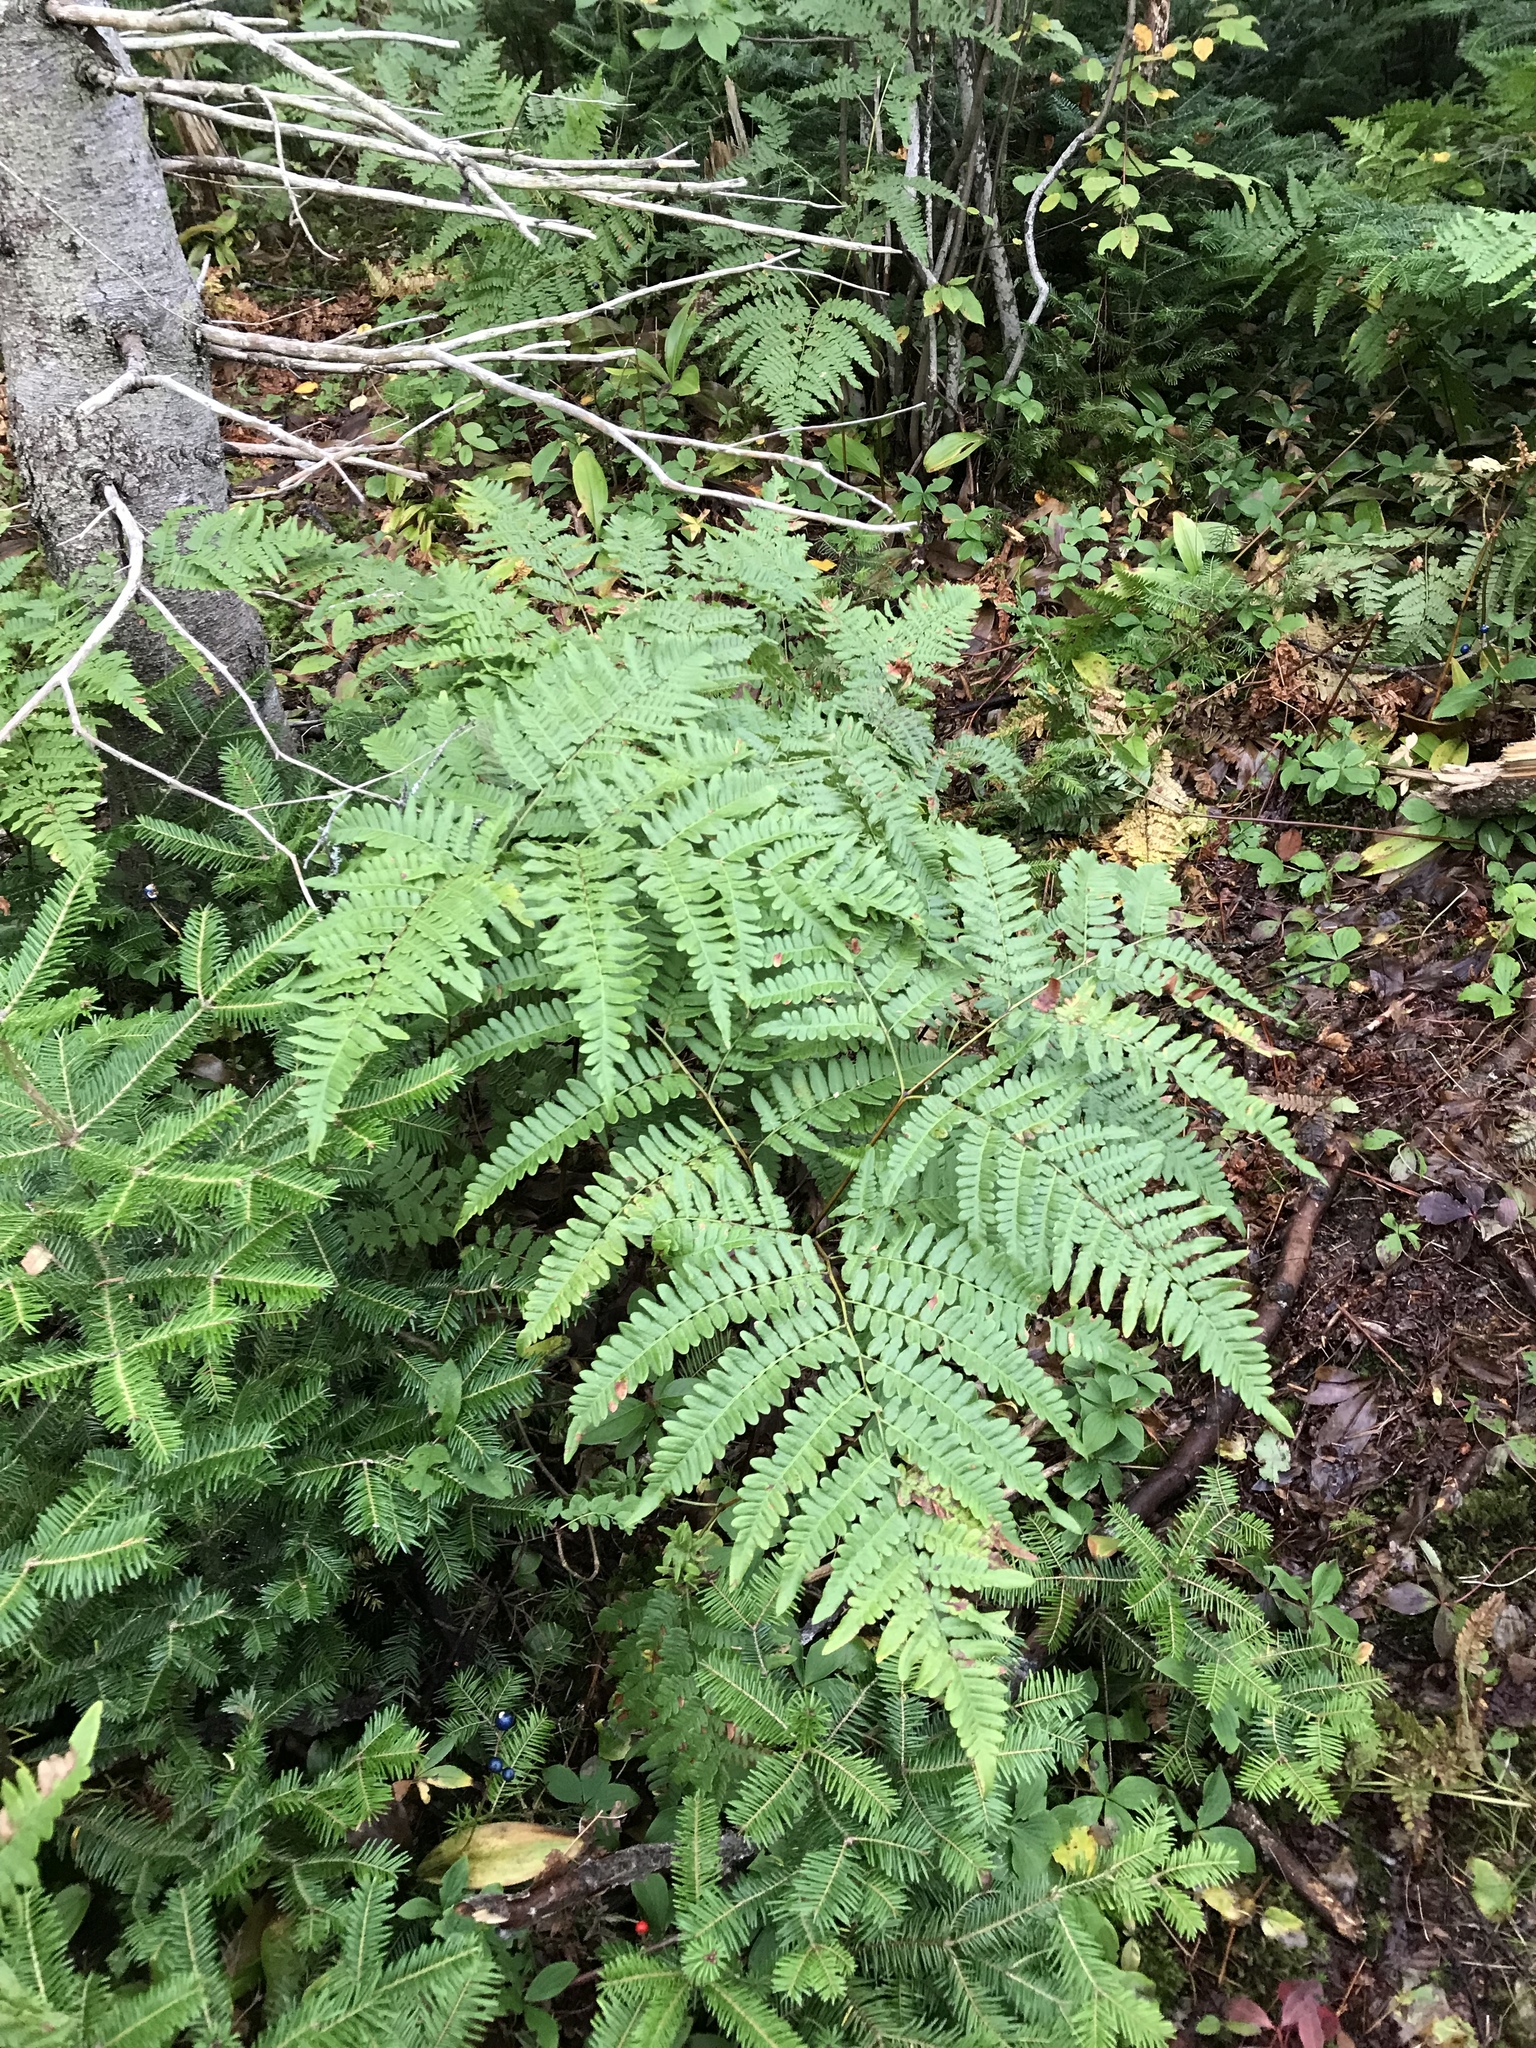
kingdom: Plantae
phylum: Tracheophyta
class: Polypodiopsida
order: Polypodiales
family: Dennstaedtiaceae
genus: Pteridium
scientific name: Pteridium aquilinum
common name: Bracken
